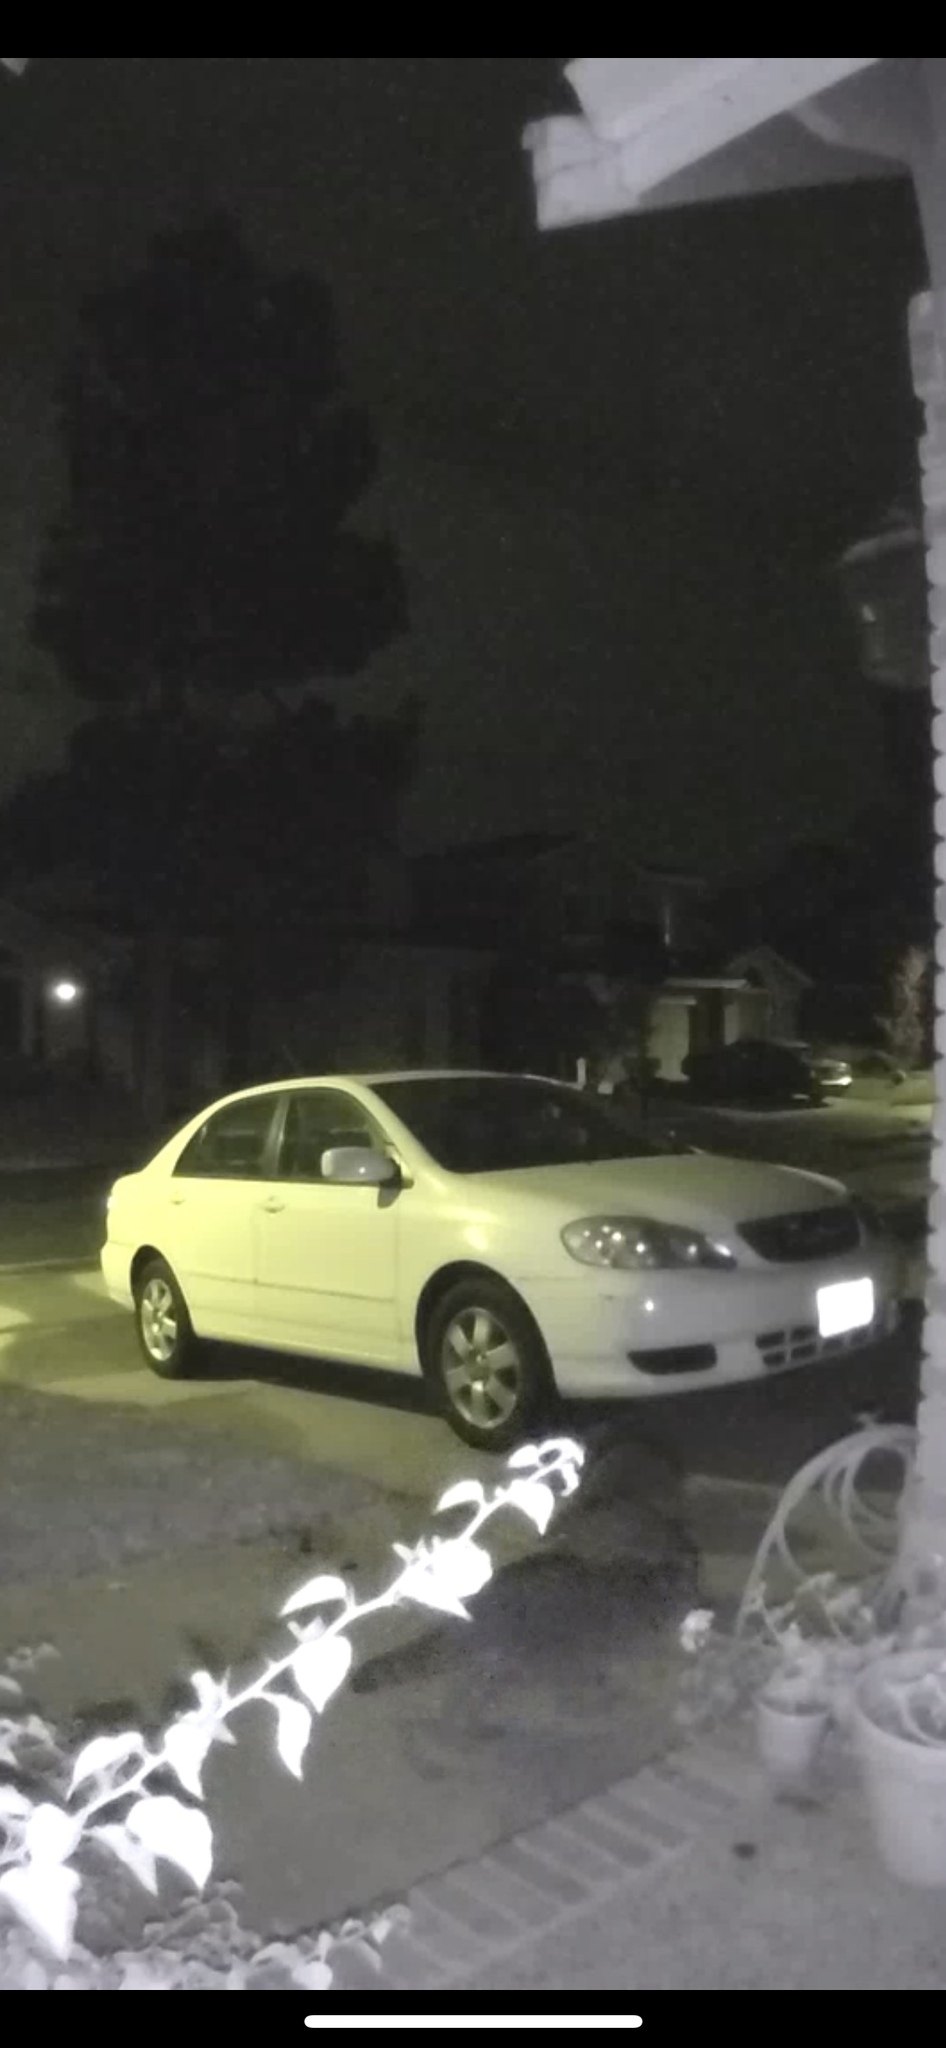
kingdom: Animalia
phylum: Chordata
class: Mammalia
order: Carnivora
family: Procyonidae
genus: Procyon
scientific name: Procyon lotor
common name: Raccoon
